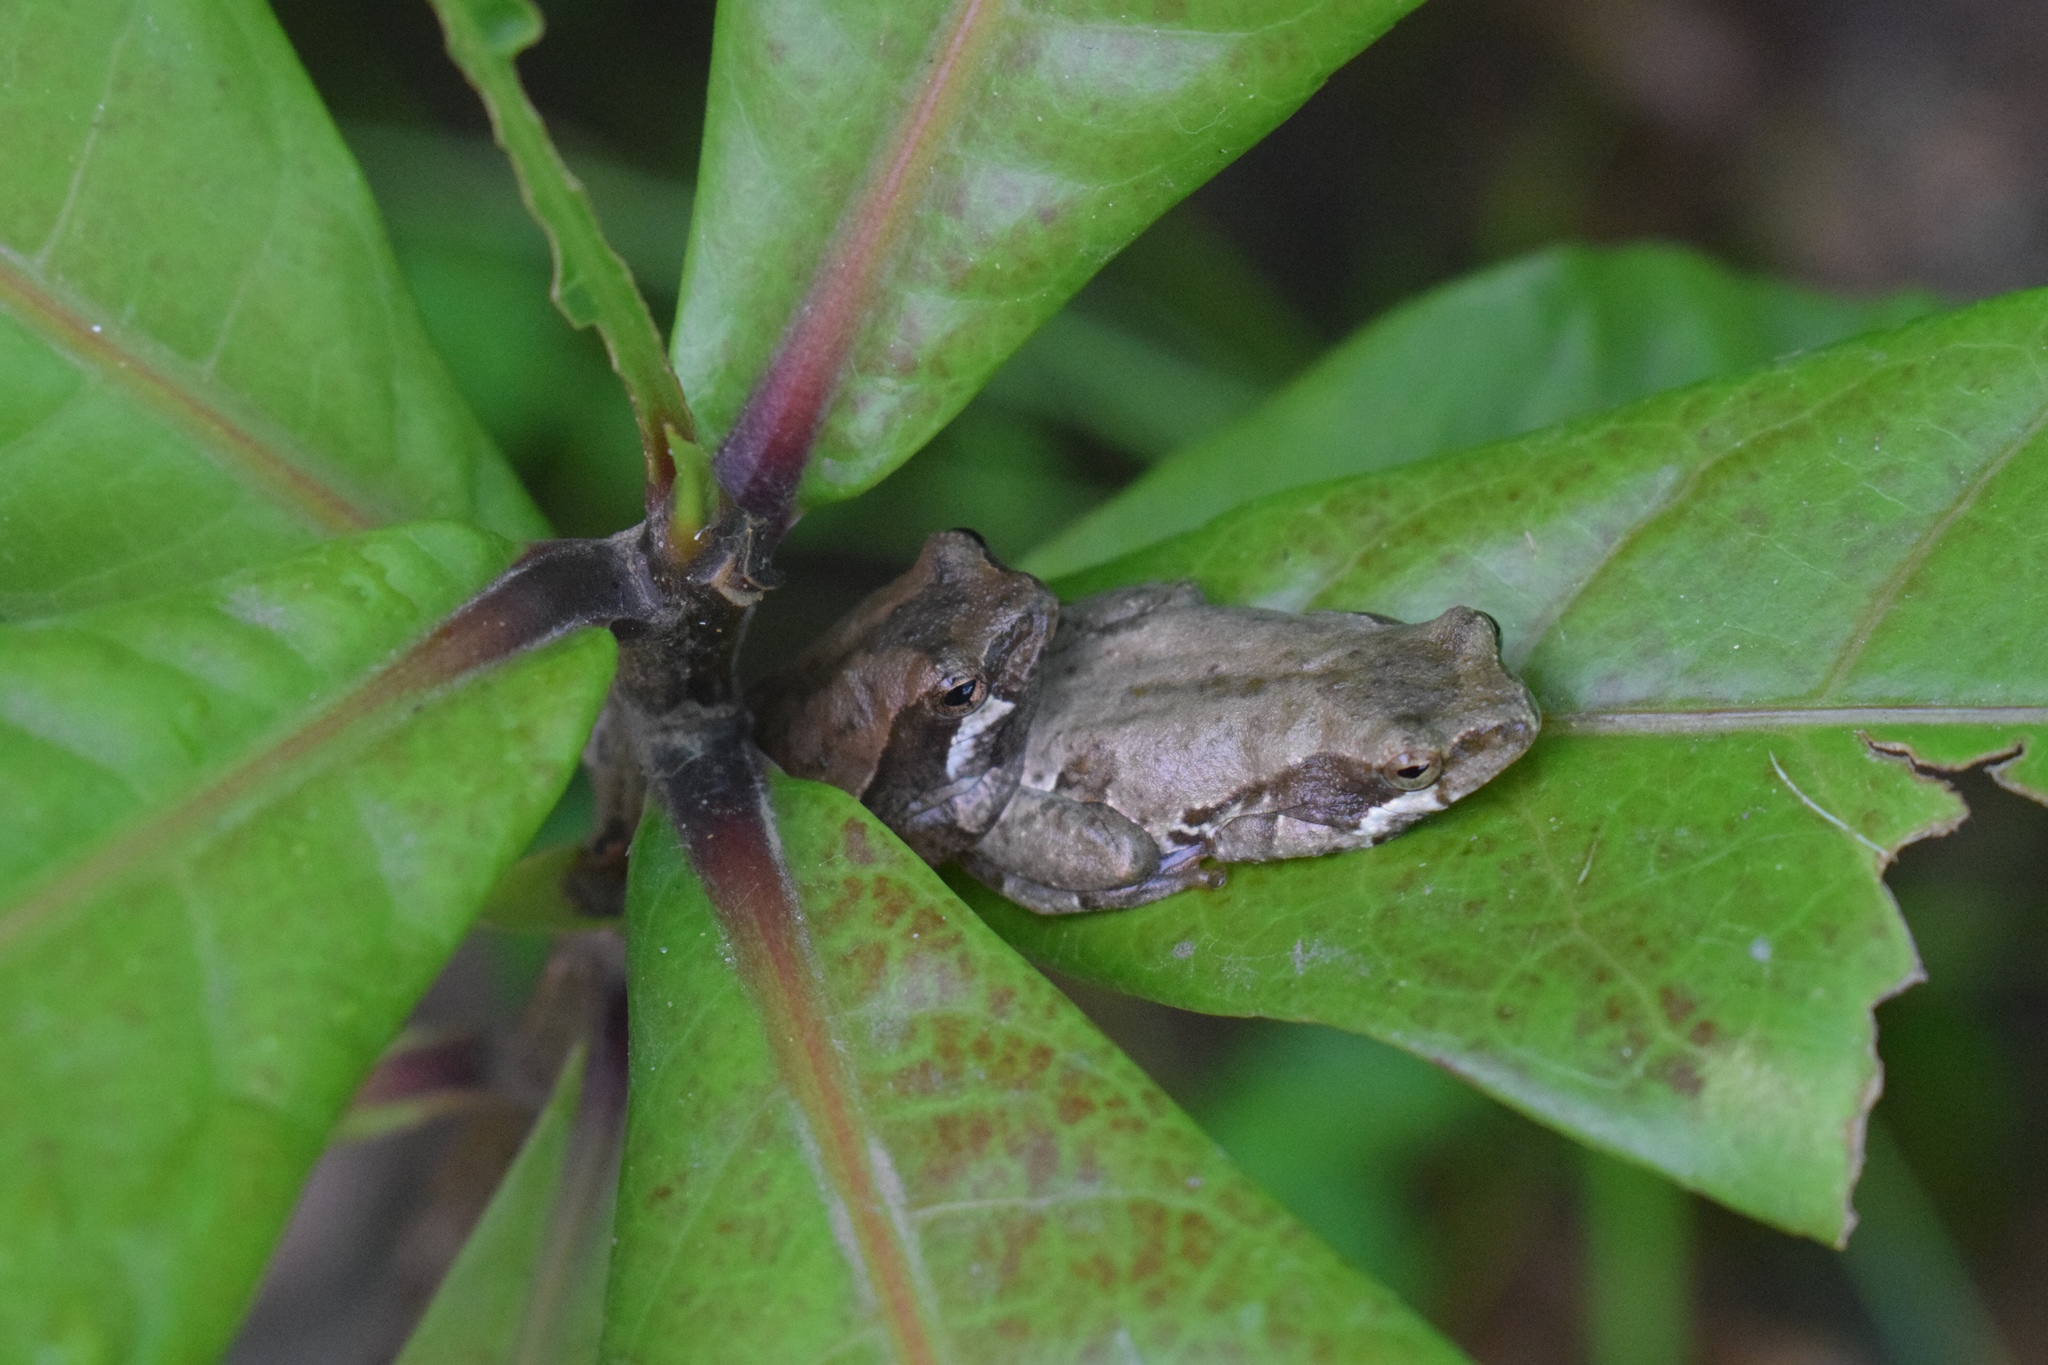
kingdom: Animalia
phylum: Chordata
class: Amphibia
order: Anura
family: Hyperoliidae
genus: Hyperolius
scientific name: Hyperolius marmoratus
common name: Painted reed frog
